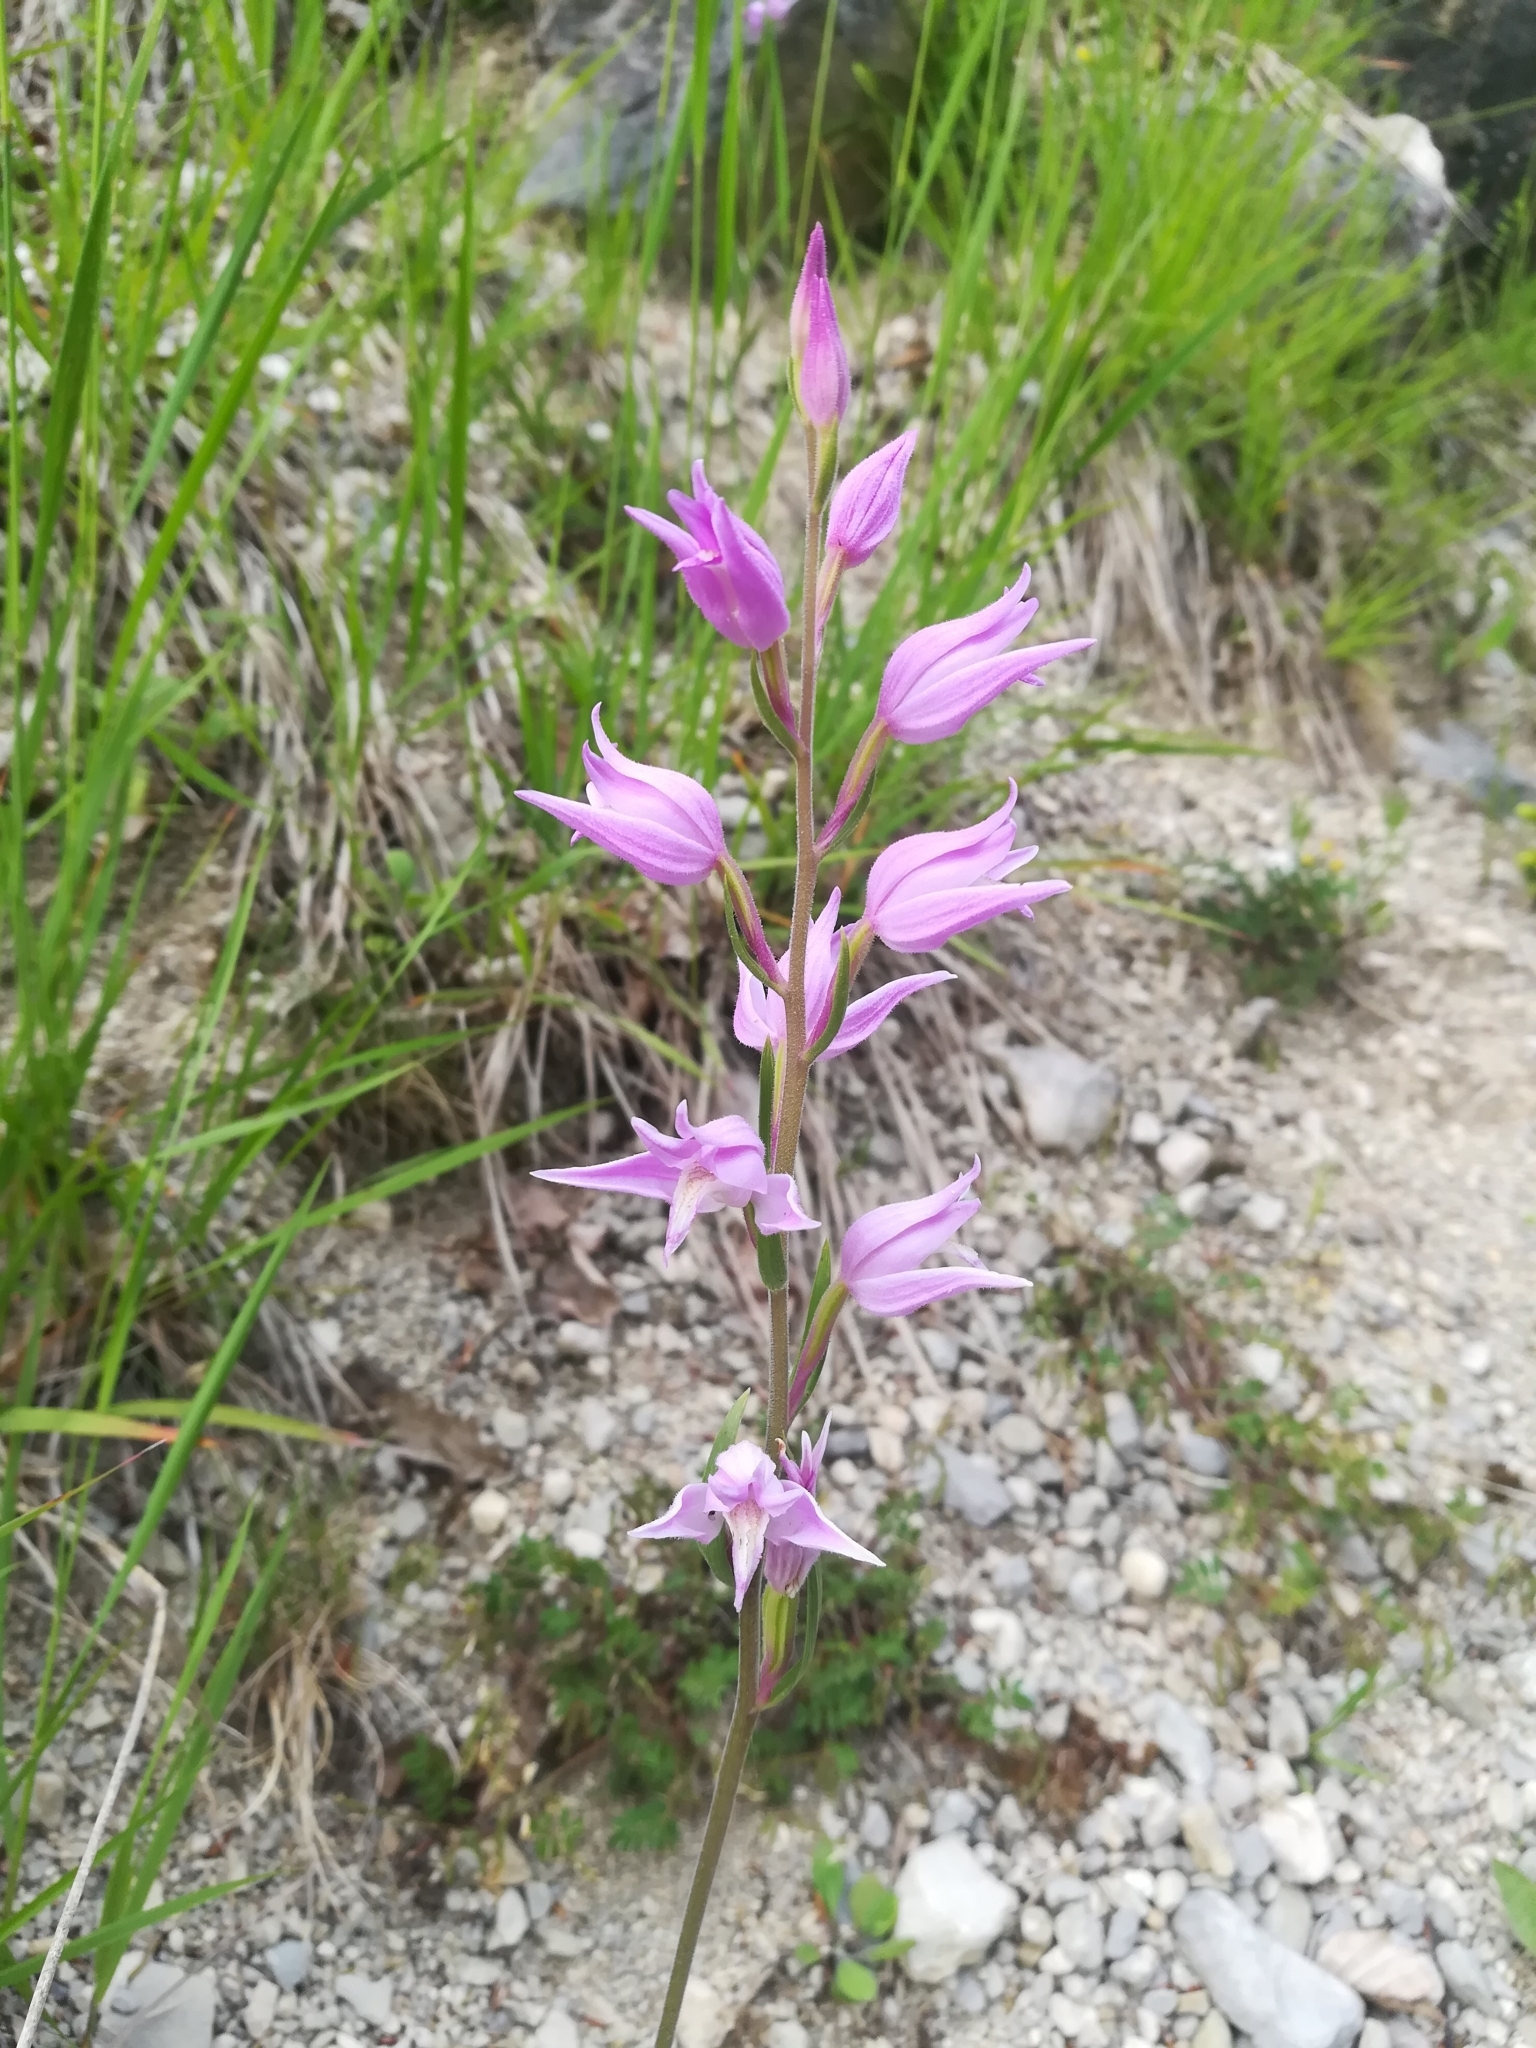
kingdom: Plantae
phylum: Tracheophyta
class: Liliopsida
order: Asparagales
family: Orchidaceae
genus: Cephalanthera
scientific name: Cephalanthera rubra
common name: Red helleborine
